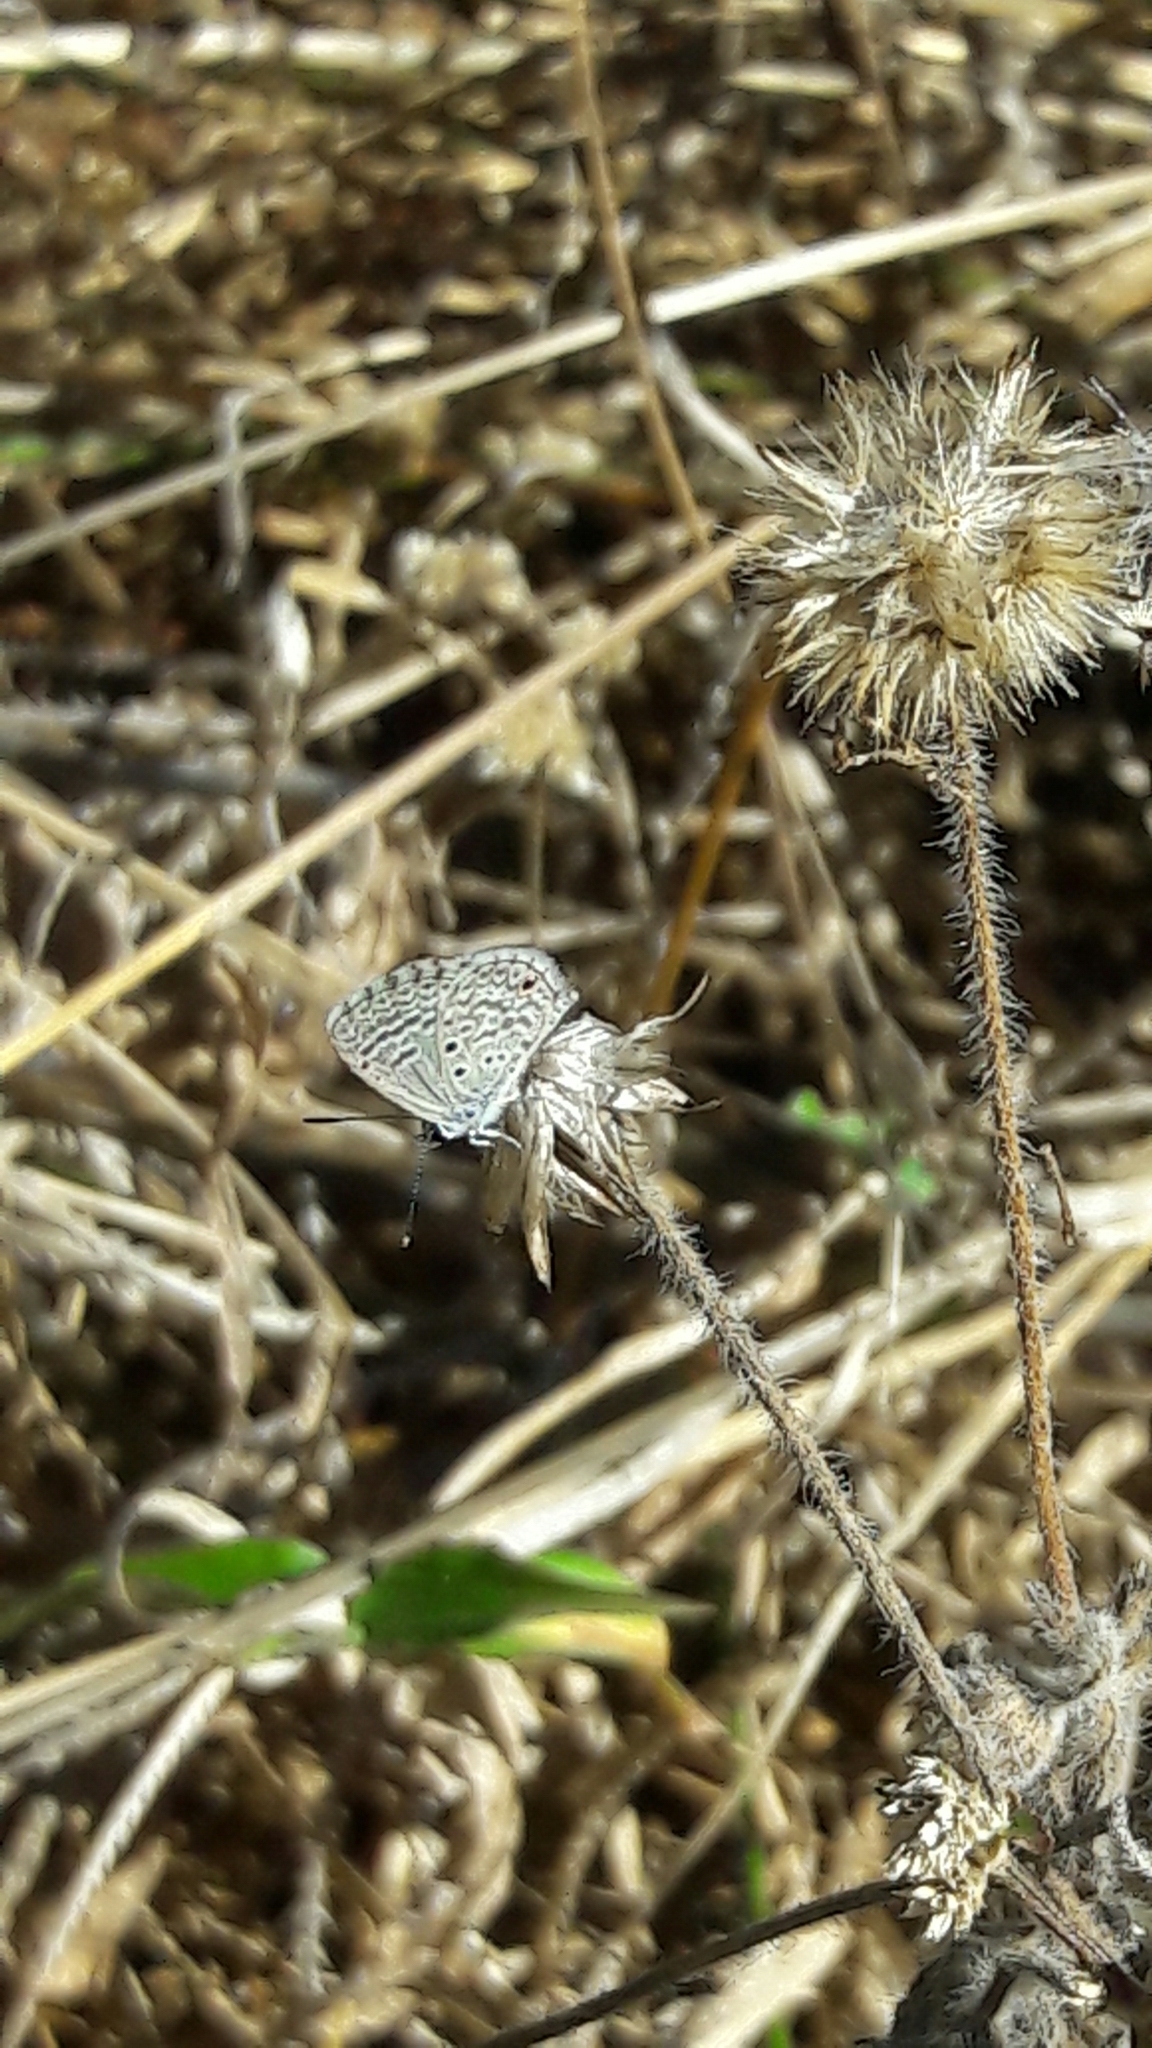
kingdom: Animalia
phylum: Arthropoda
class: Insecta
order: Lepidoptera
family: Lycaenidae
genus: Hemiargus
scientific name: Hemiargus hanno
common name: Common blue
